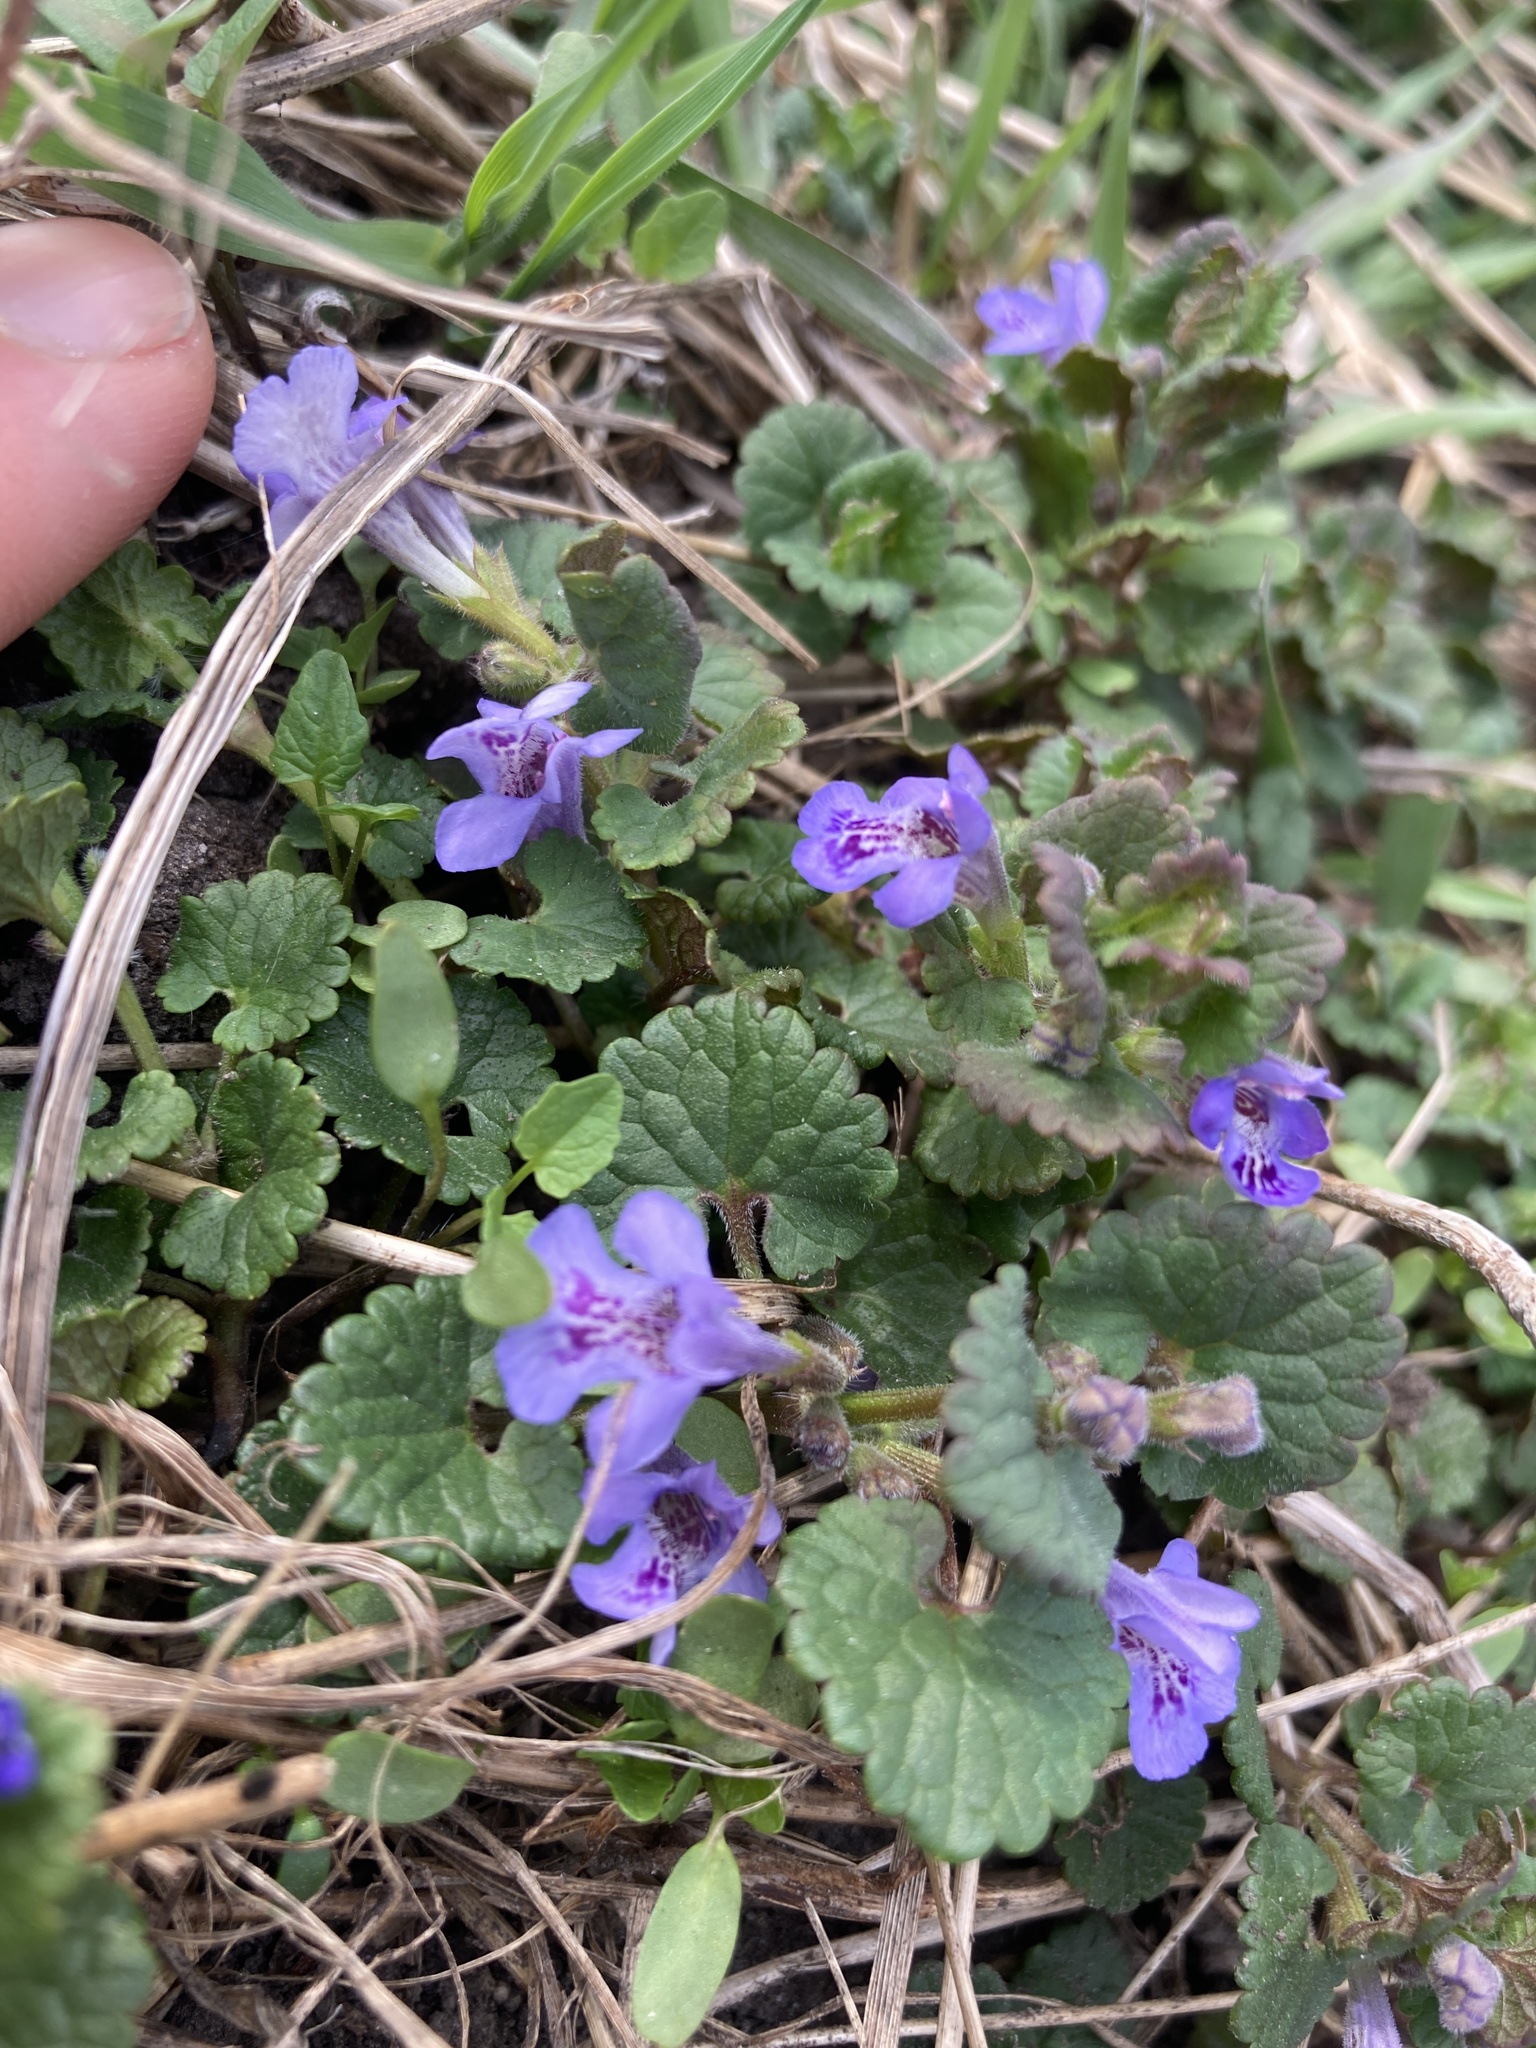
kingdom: Plantae
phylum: Tracheophyta
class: Magnoliopsida
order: Lamiales
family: Lamiaceae
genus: Glechoma
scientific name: Glechoma hederacea
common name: Ground ivy
